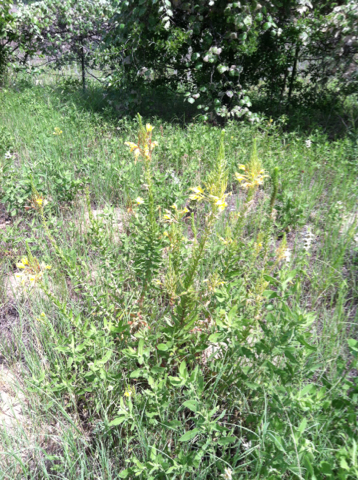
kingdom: Plantae
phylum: Tracheophyta
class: Magnoliopsida
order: Myrtales
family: Onagraceae
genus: Oenothera
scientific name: Oenothera rhombipetala
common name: Four-points evening-primrose
